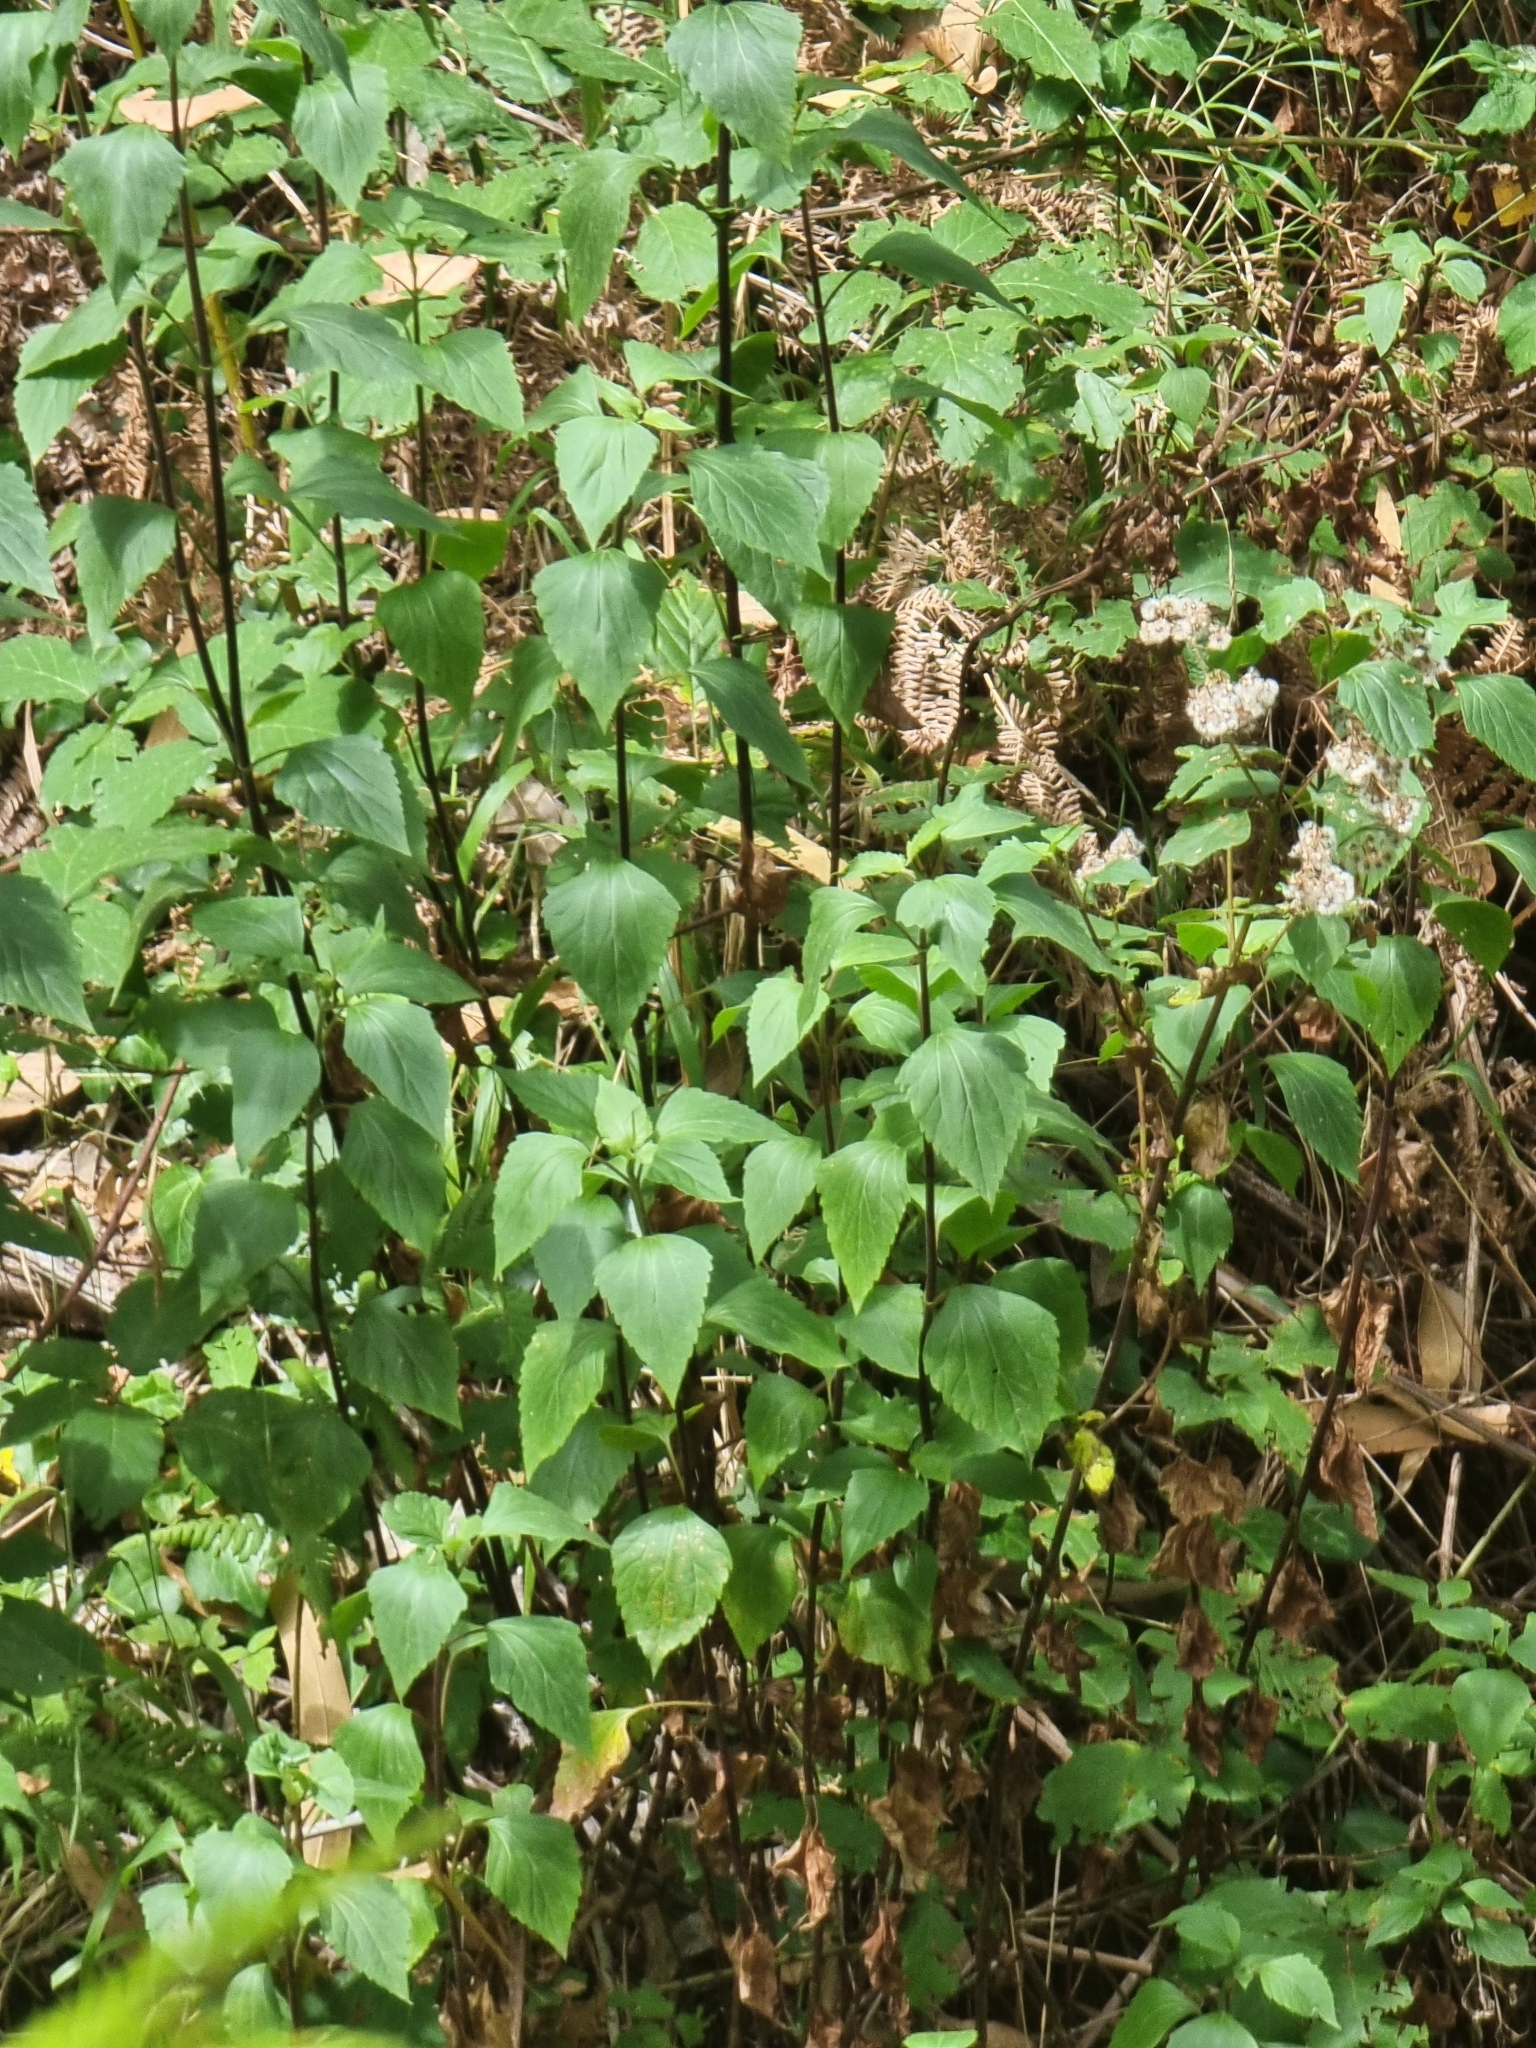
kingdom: Plantae
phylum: Tracheophyta
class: Magnoliopsida
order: Asterales
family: Asteraceae
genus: Ageratina
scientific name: Ageratina adenophora
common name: Sticky snakeroot
